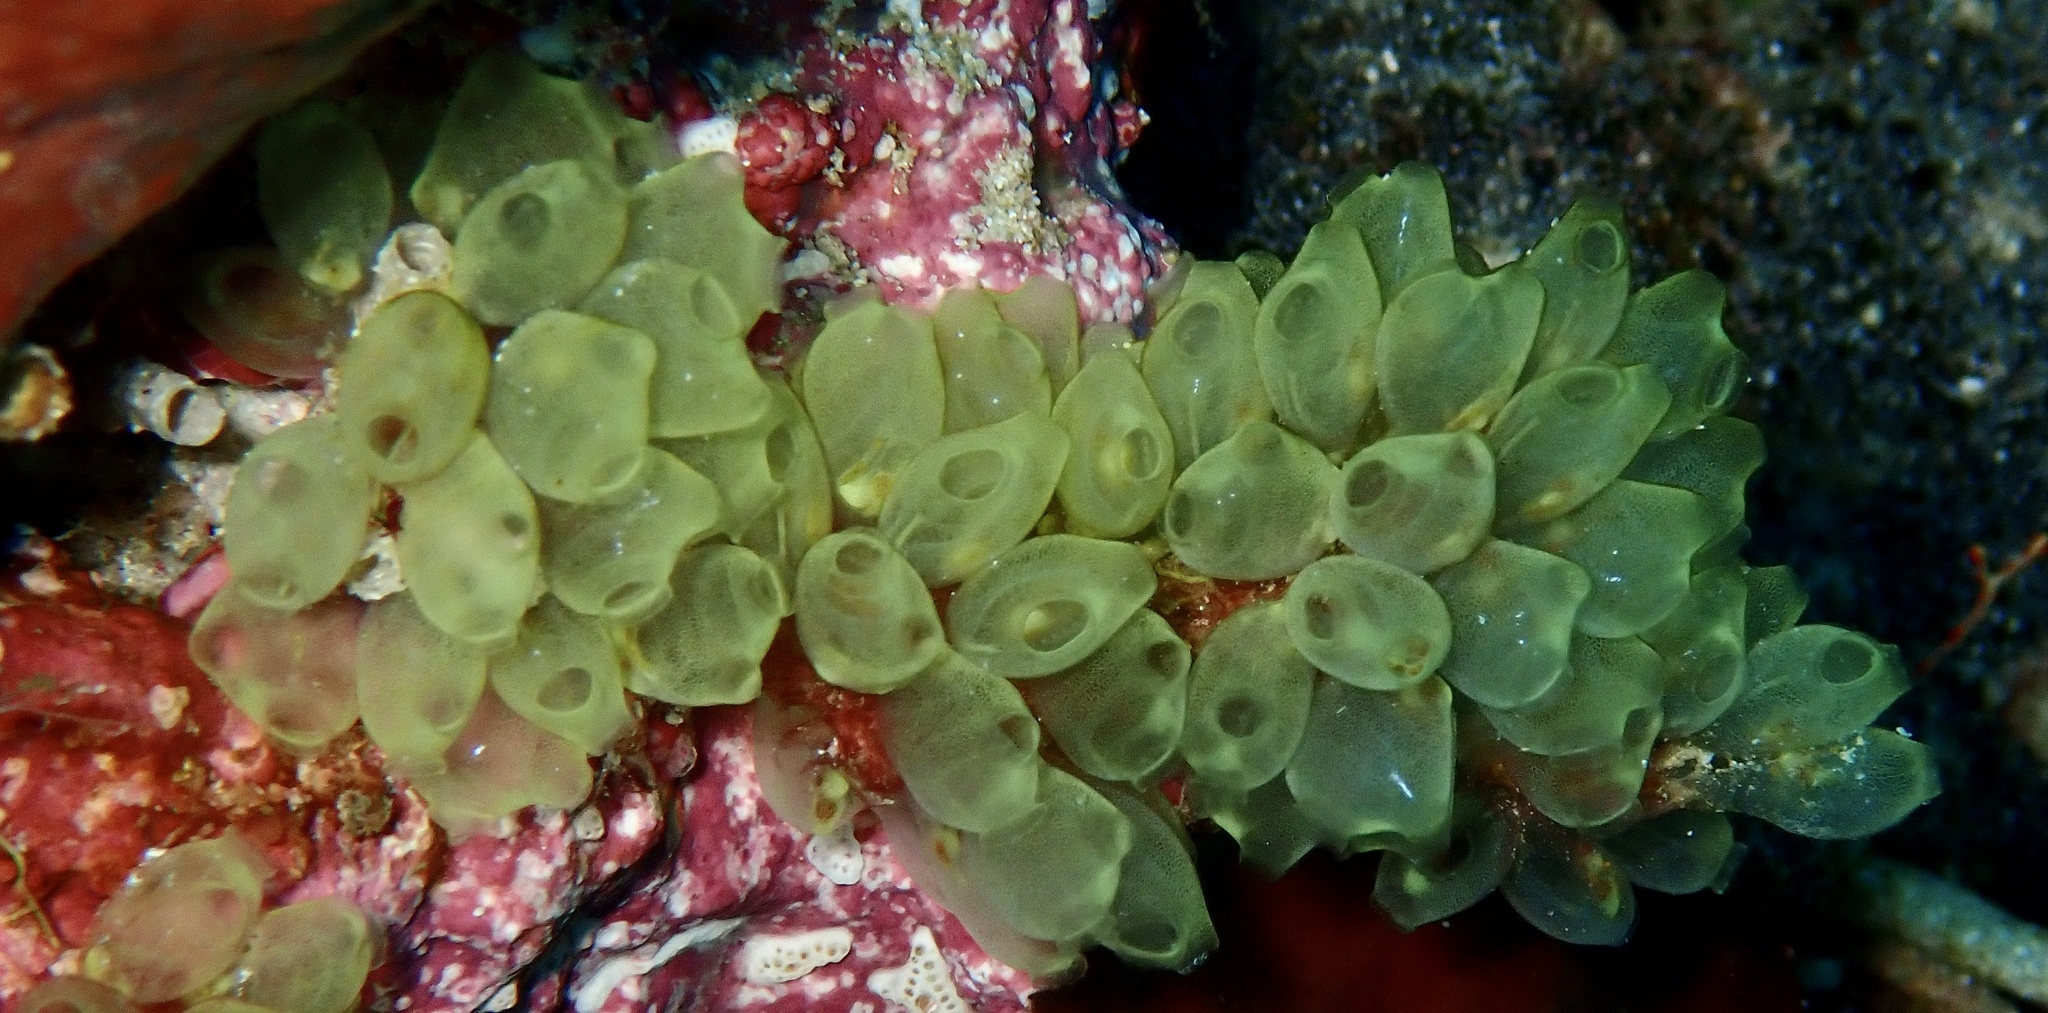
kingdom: Animalia
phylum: Chordata
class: Ascidiacea
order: Phlebobranchia
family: Perophoridae
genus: Perophora
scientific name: Perophora modificata
